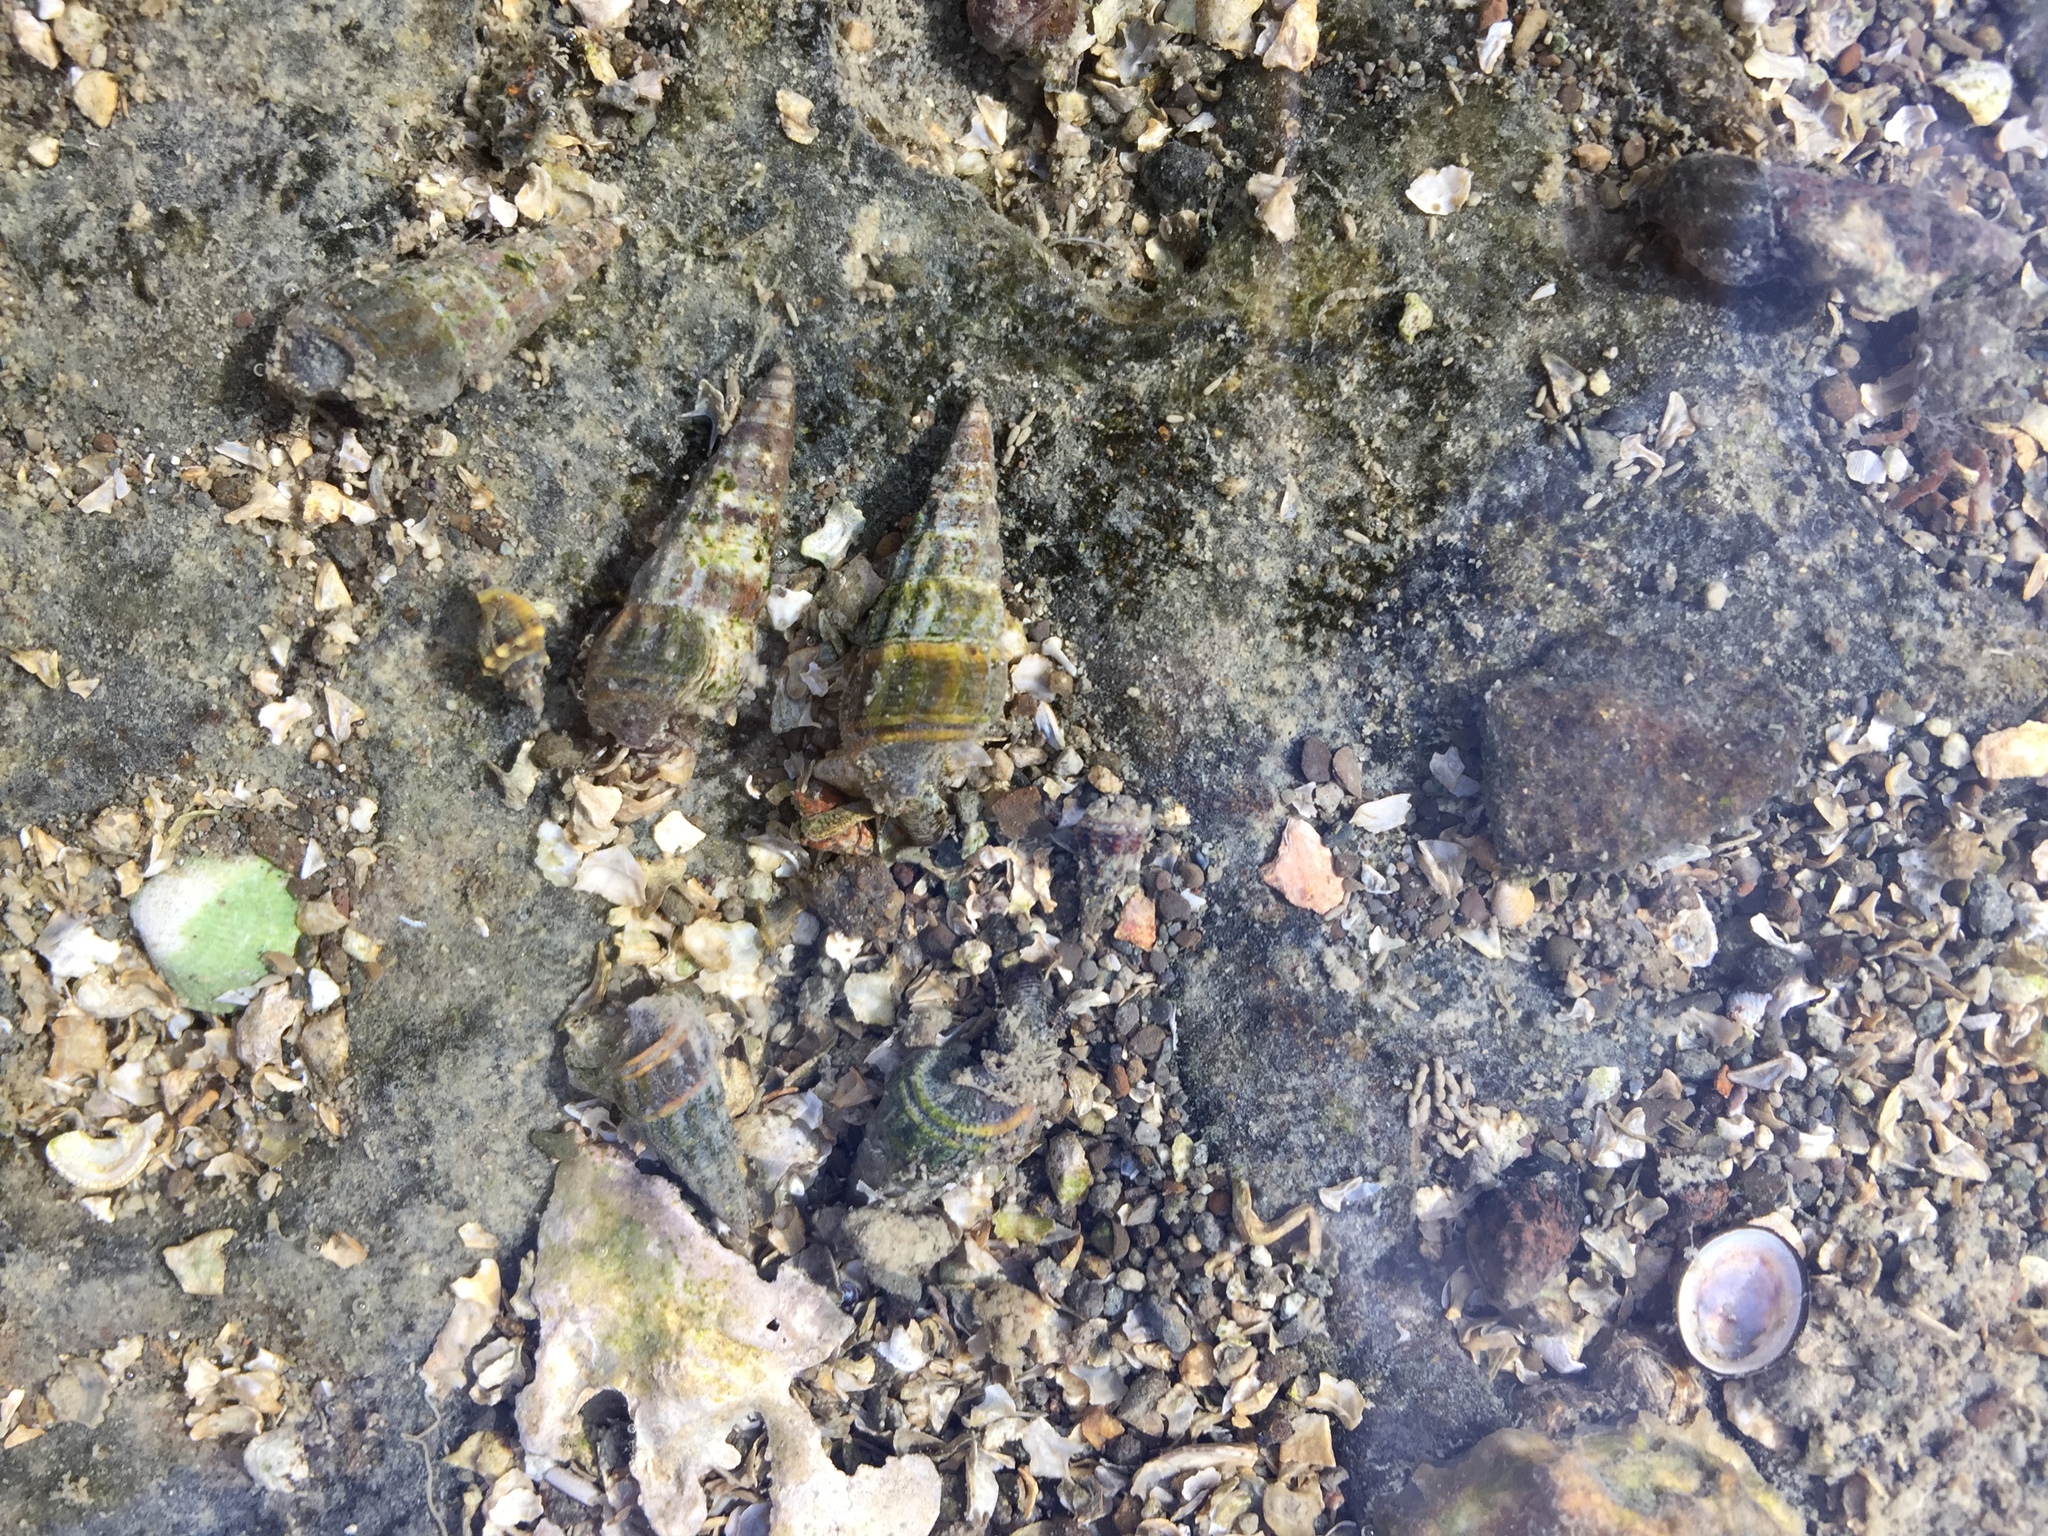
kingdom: Animalia
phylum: Mollusca
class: Gastropoda
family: Batillariidae
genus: Zeacumantus
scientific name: Zeacumantus lutulentus
